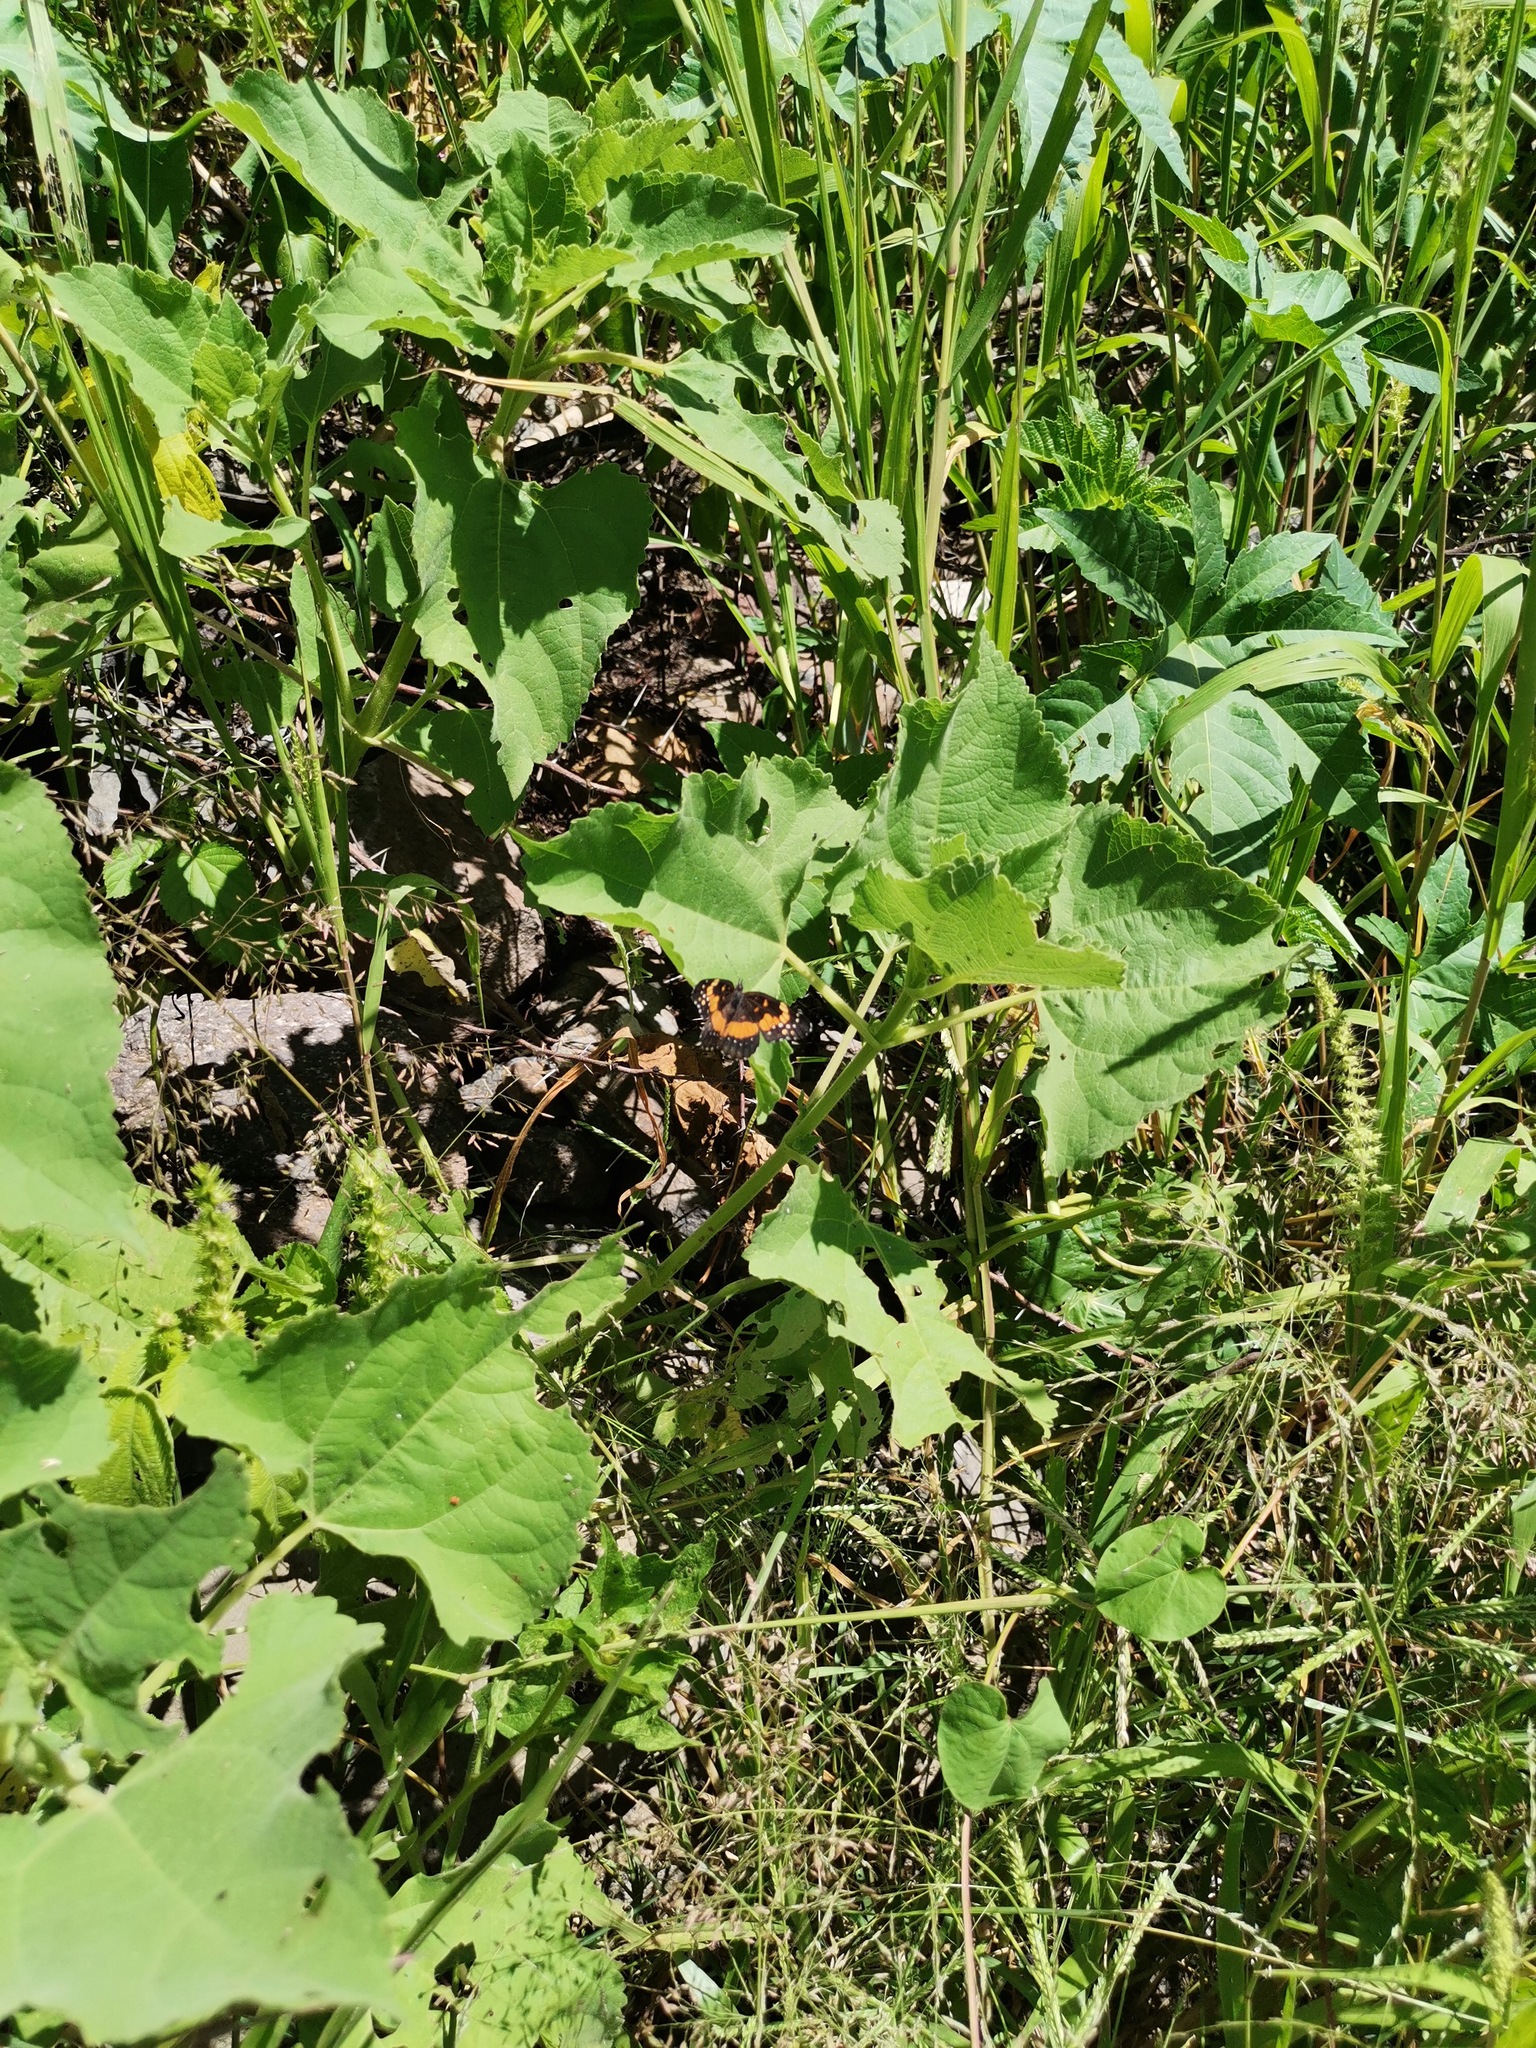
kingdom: Animalia
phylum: Arthropoda
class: Insecta
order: Lepidoptera
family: Nymphalidae
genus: Chlosyne
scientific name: Chlosyne lacinia
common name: Bordered patch
